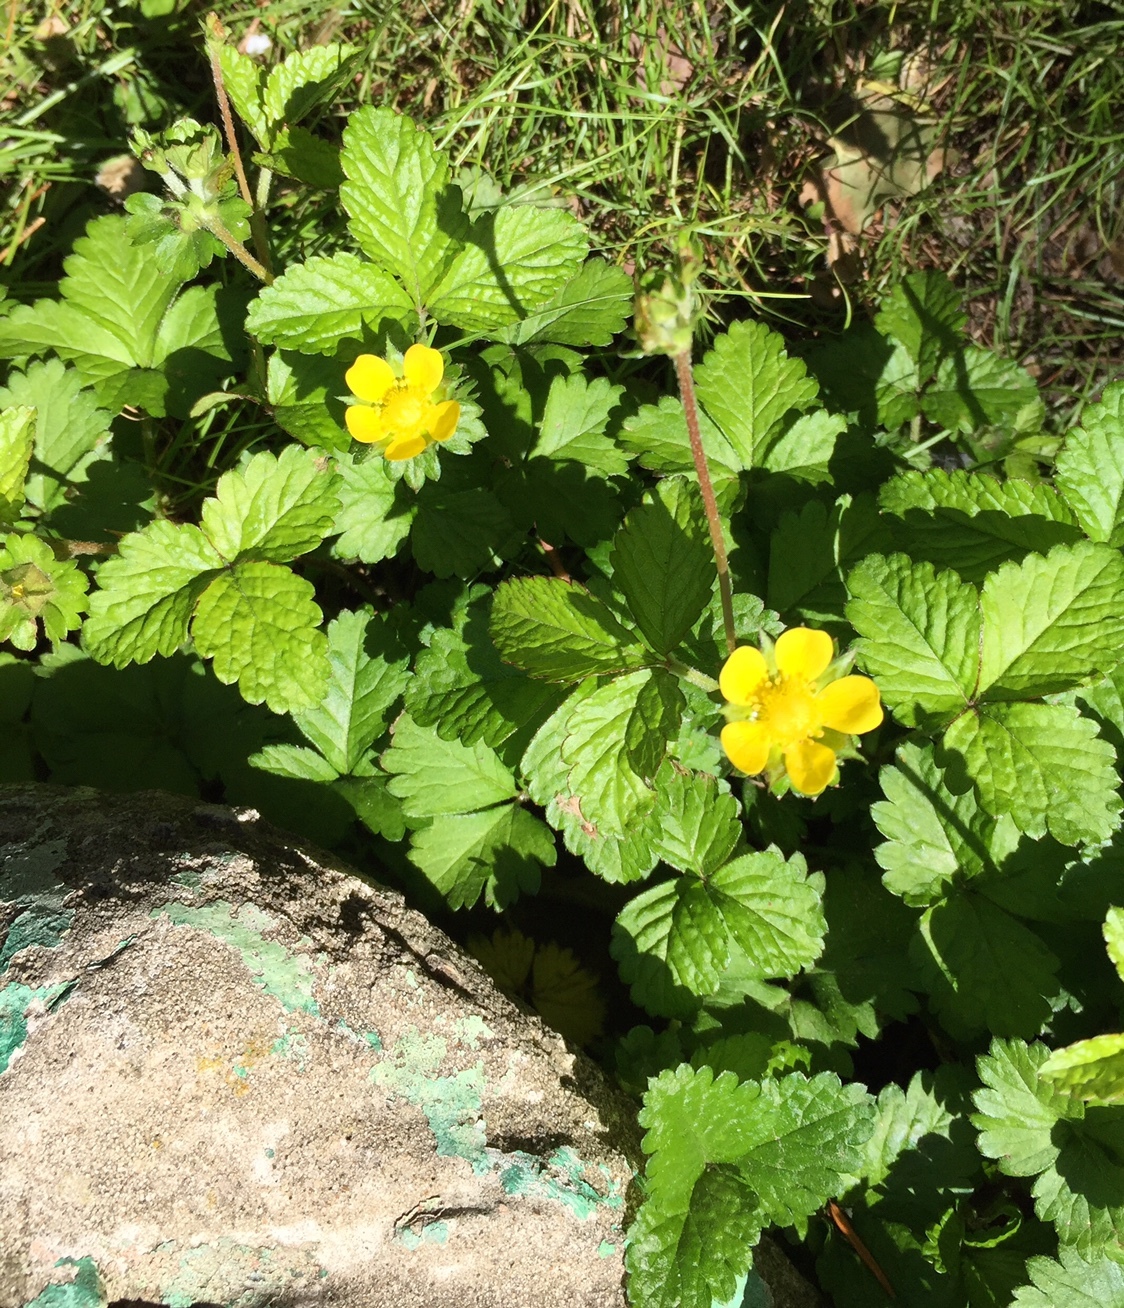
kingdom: Plantae
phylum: Tracheophyta
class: Magnoliopsida
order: Rosales
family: Rosaceae
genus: Potentilla
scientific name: Potentilla indica
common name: Yellow-flowered strawberry
